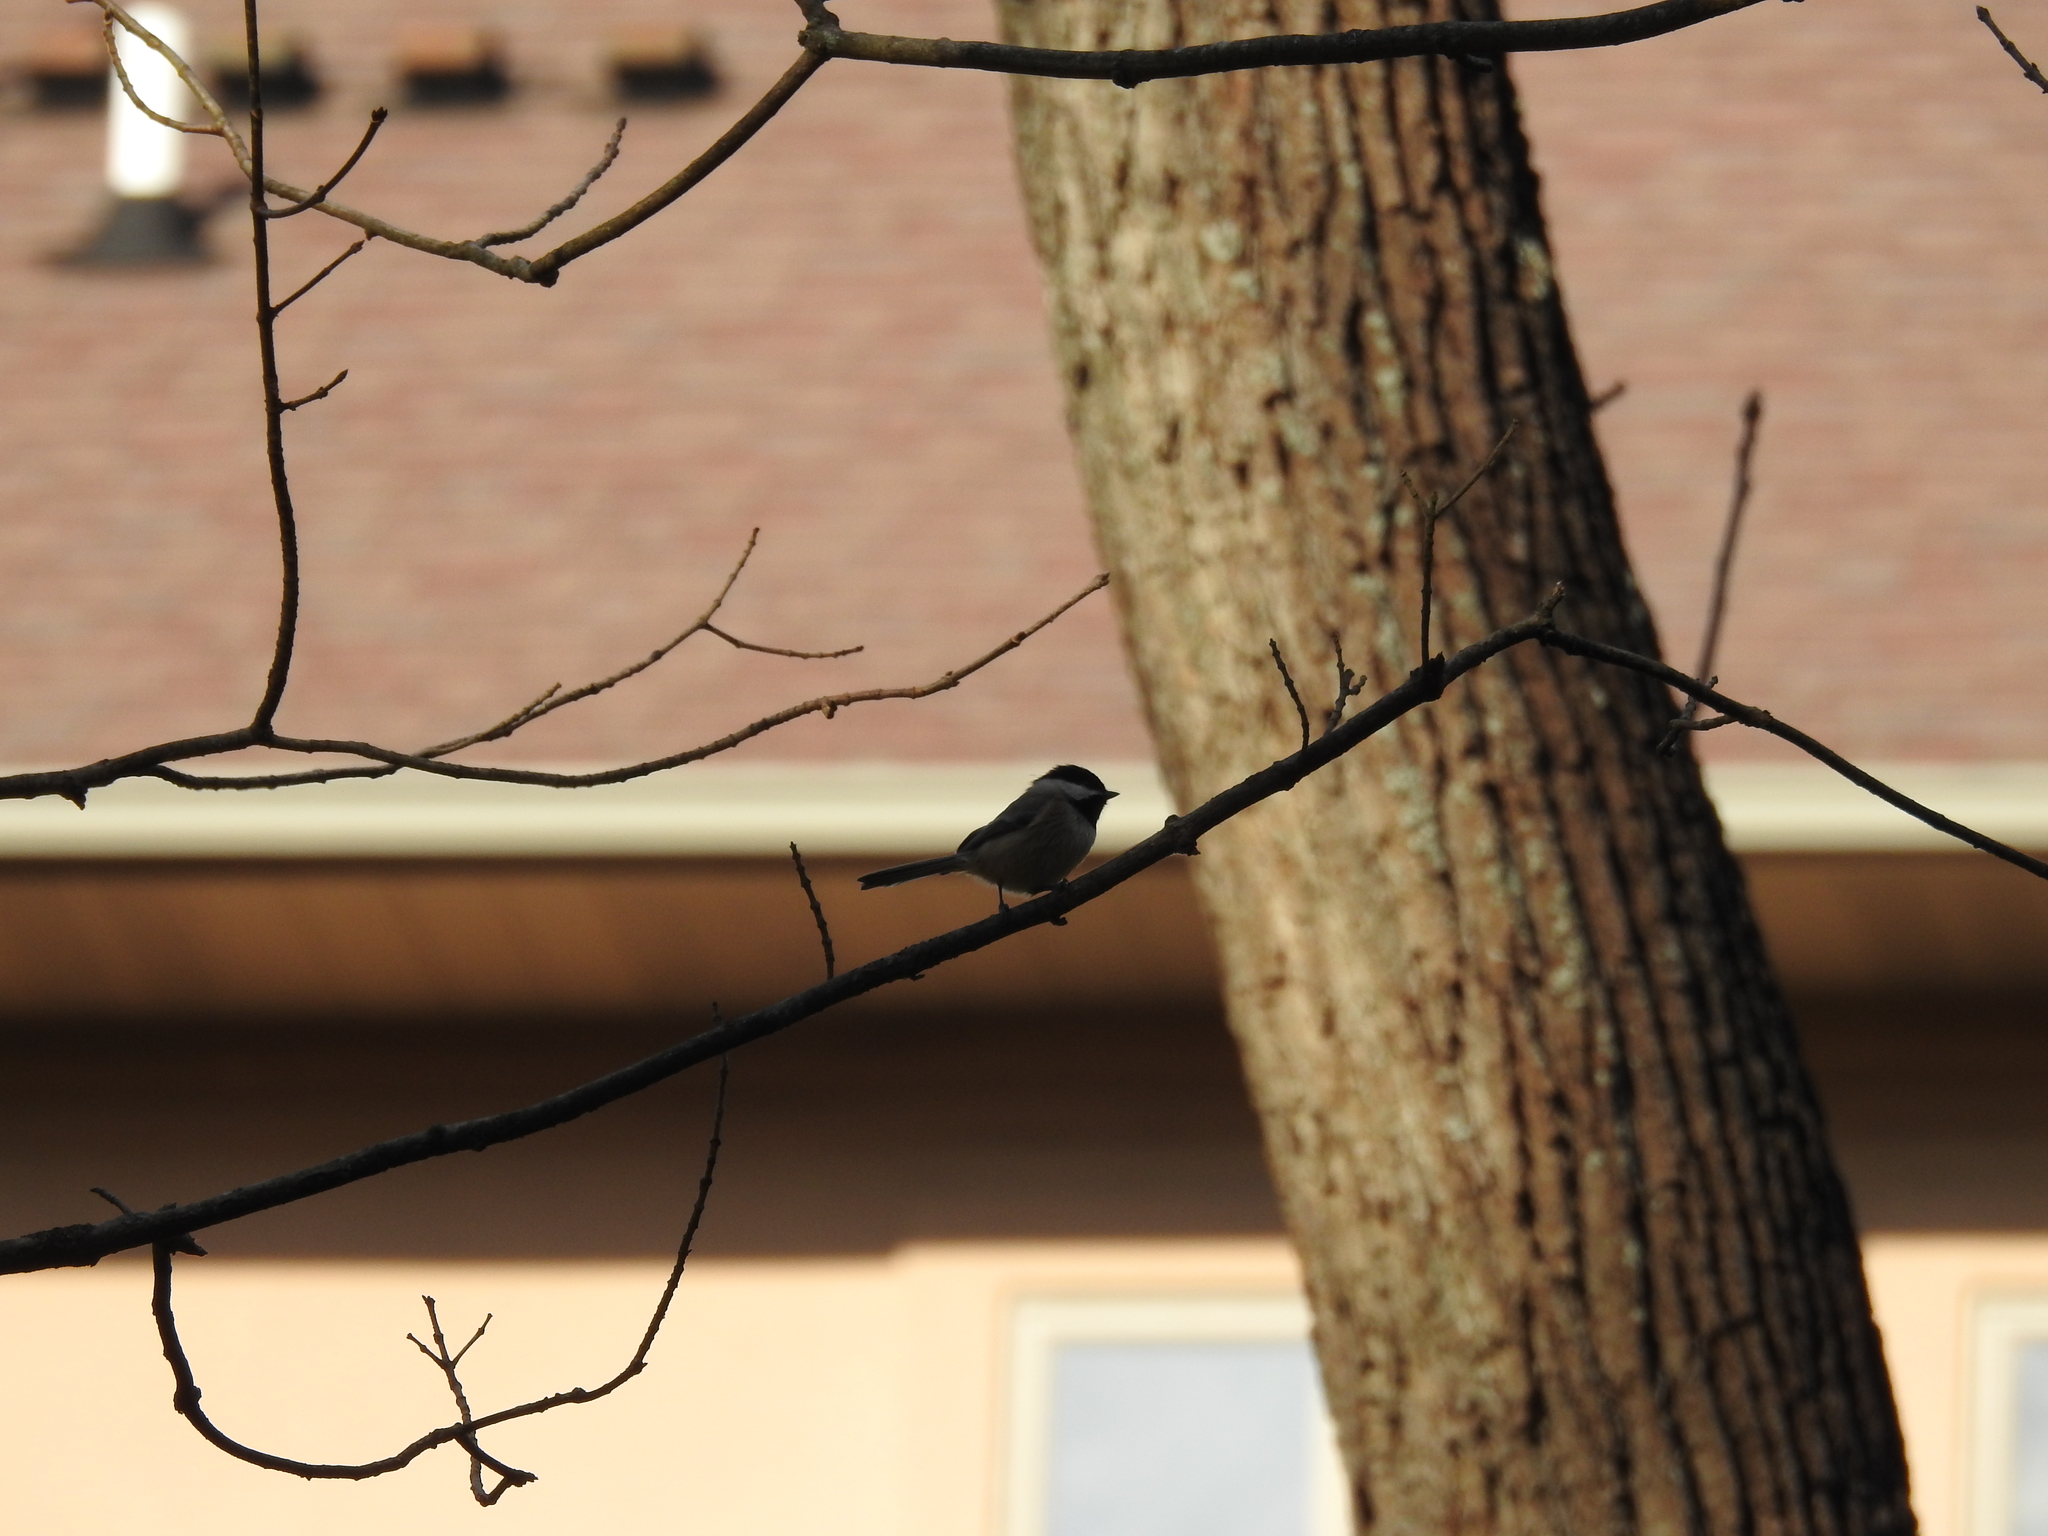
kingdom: Animalia
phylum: Chordata
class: Aves
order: Passeriformes
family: Paridae
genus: Poecile
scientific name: Poecile carolinensis
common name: Carolina chickadee
